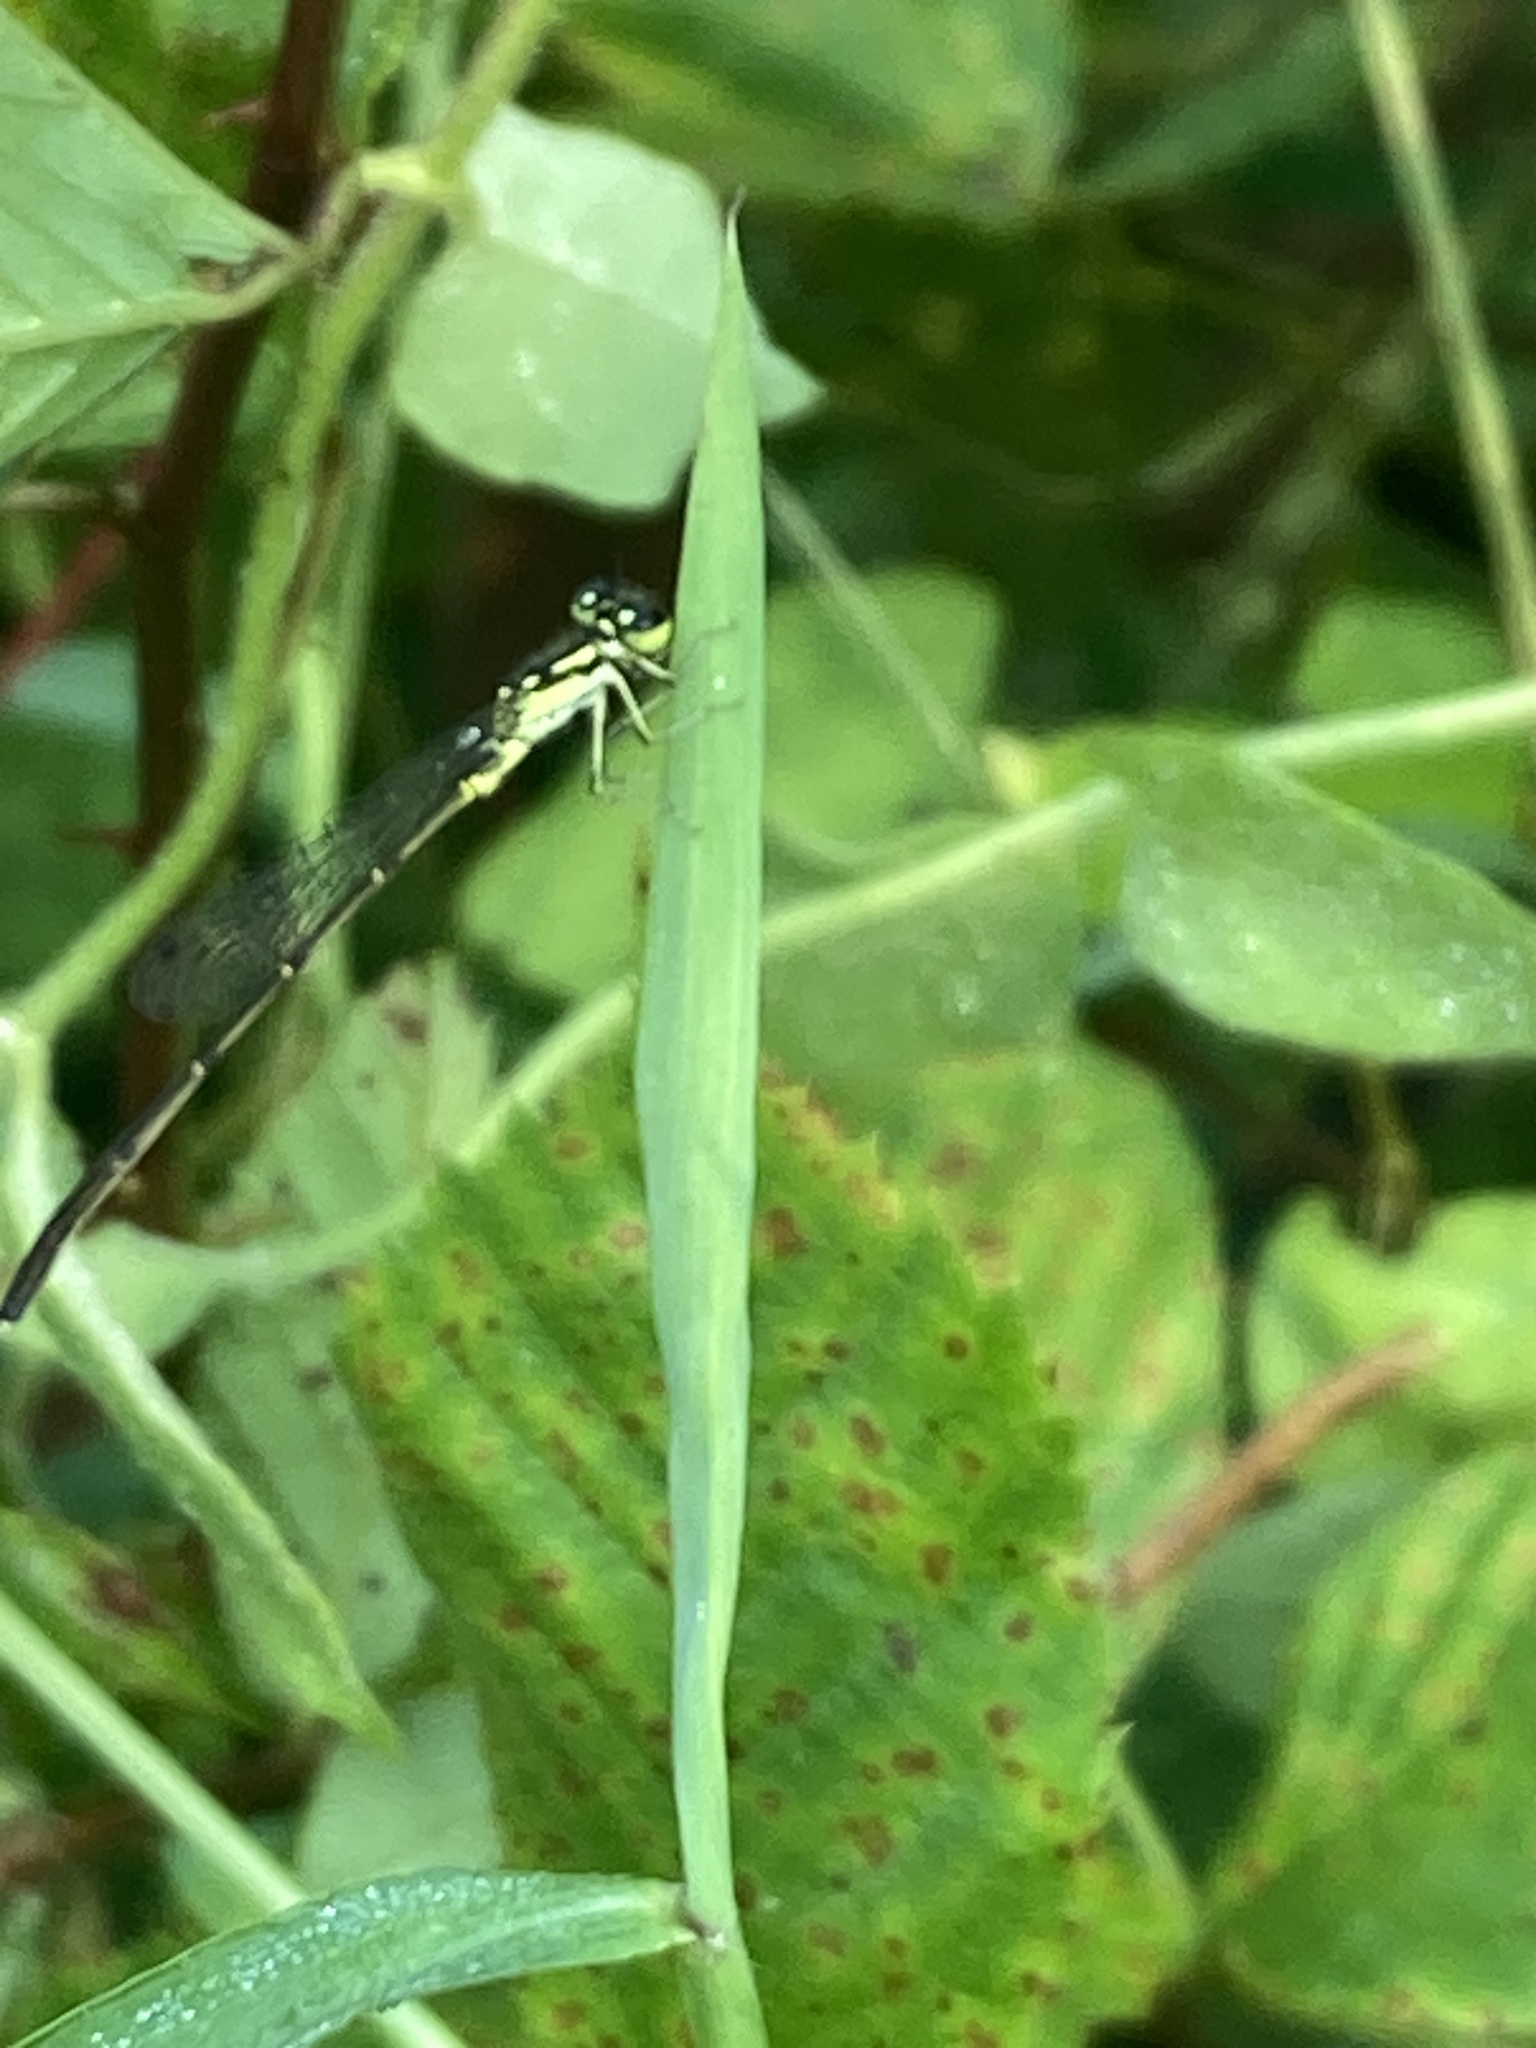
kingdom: Animalia
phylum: Arthropoda
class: Insecta
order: Odonata
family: Coenagrionidae
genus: Ischnura
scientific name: Ischnura posita
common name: Fragile forktail
